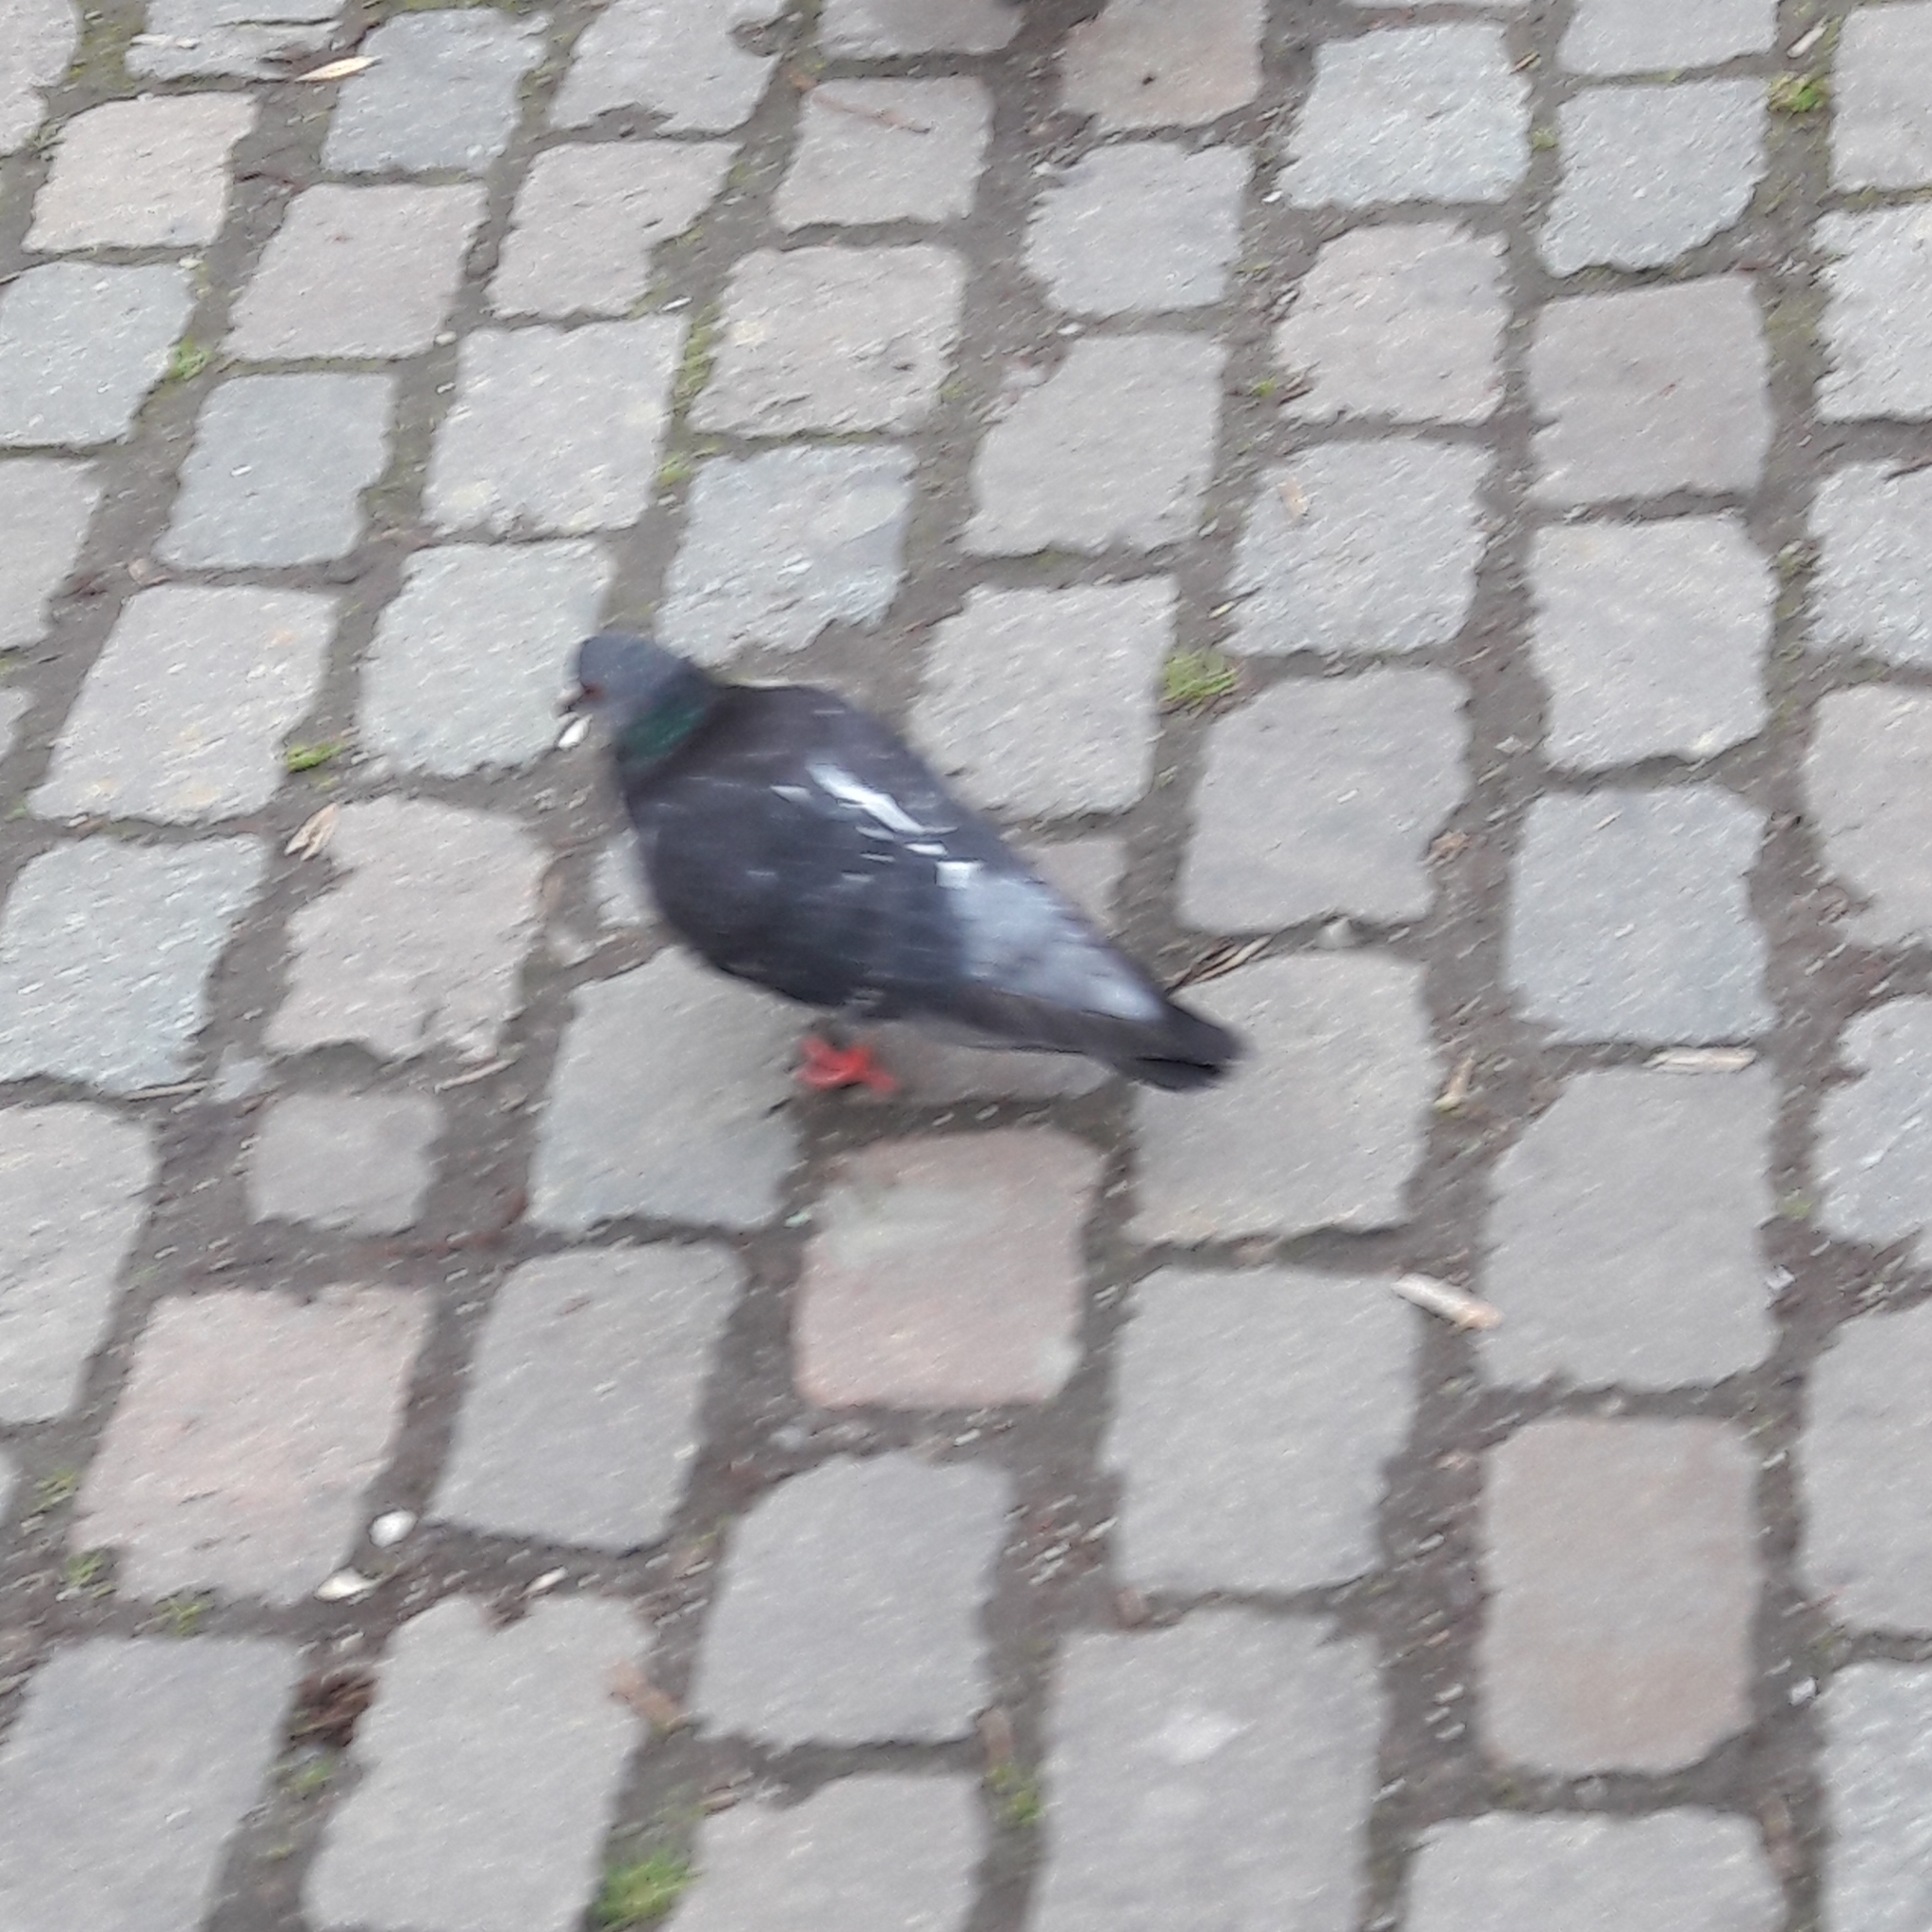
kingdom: Animalia
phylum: Chordata
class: Aves
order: Columbiformes
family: Columbidae
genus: Columba
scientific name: Columba livia
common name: Rock pigeon
